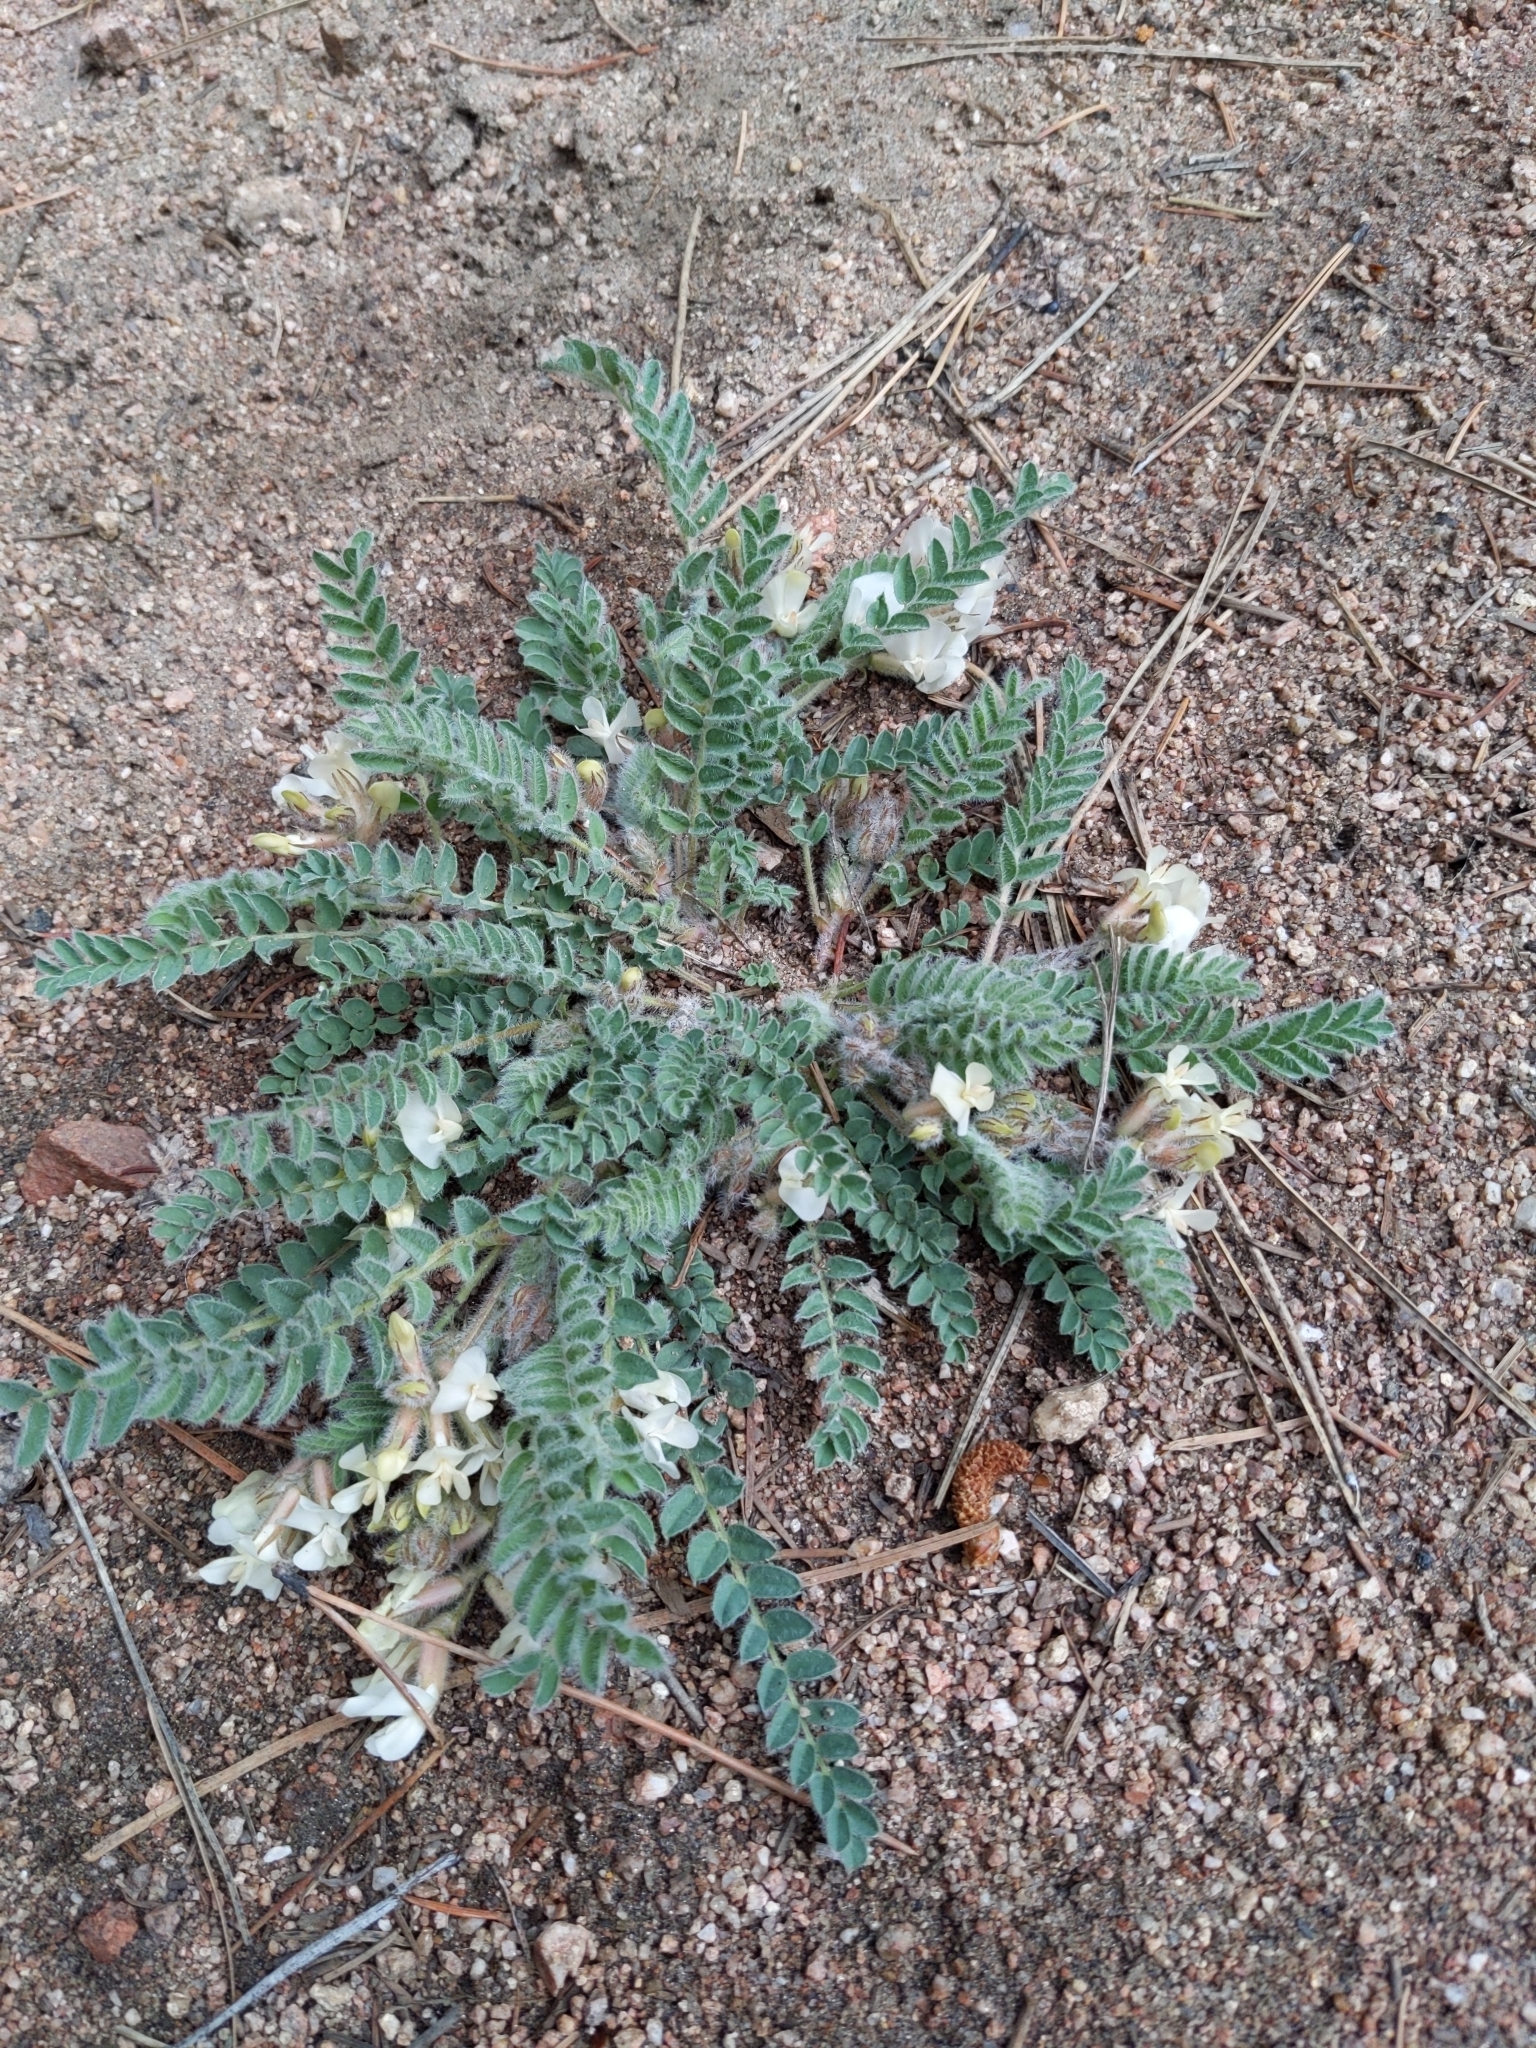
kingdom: Plantae
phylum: Tracheophyta
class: Magnoliopsida
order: Fabales
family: Fabaceae
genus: Astragalus
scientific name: Astragalus parryi
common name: Parry milk-vetch
